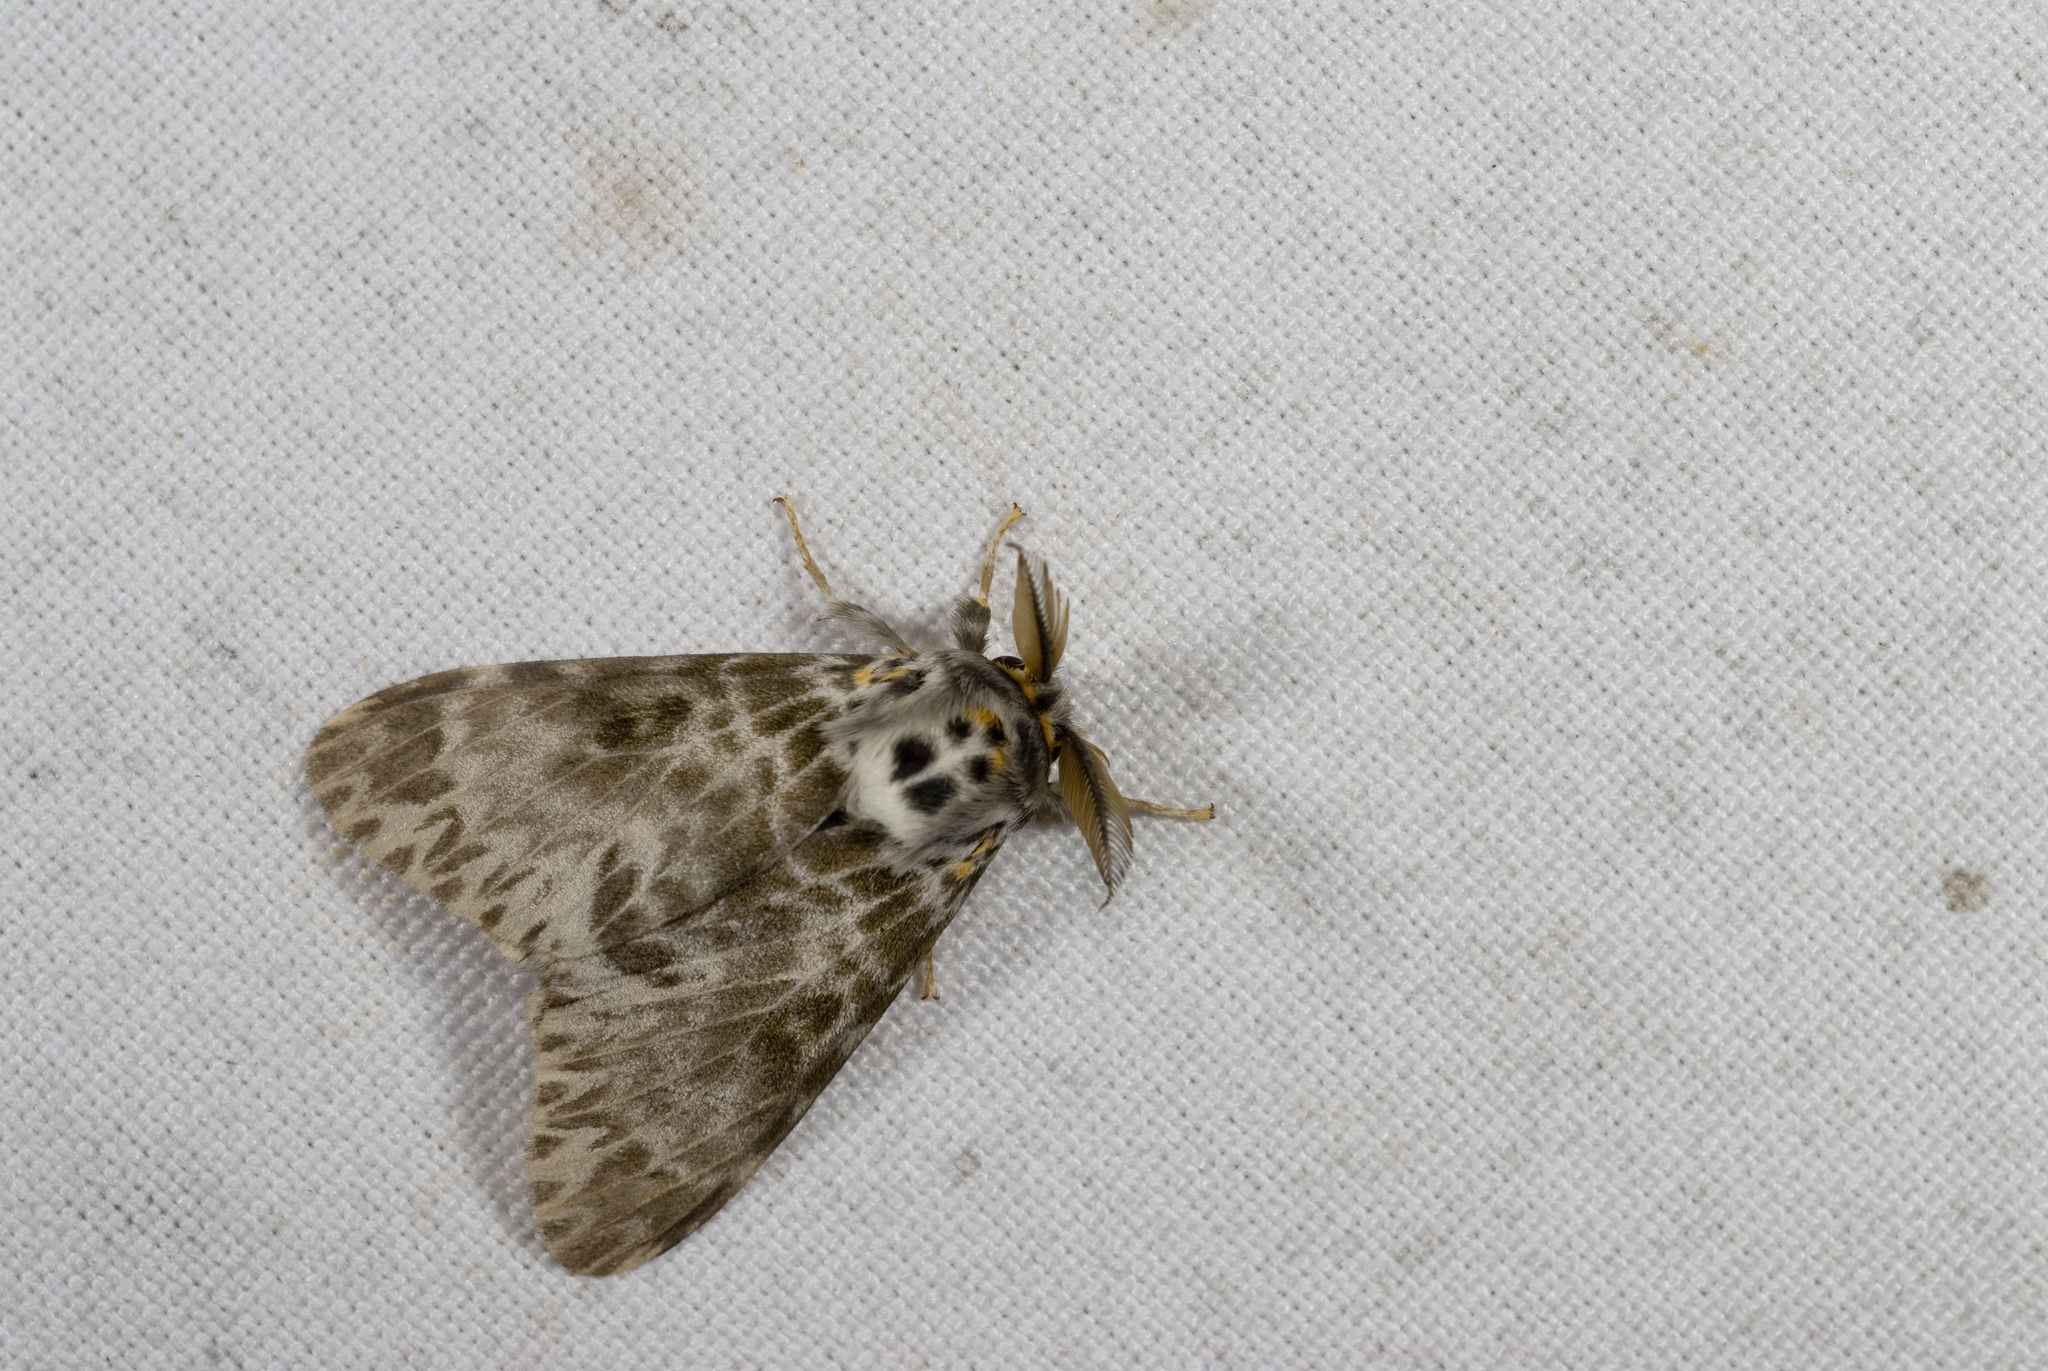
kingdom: Animalia
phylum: Arthropoda
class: Insecta
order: Lepidoptera
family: Erebidae
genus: Lymantria
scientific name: Lymantria mathura
